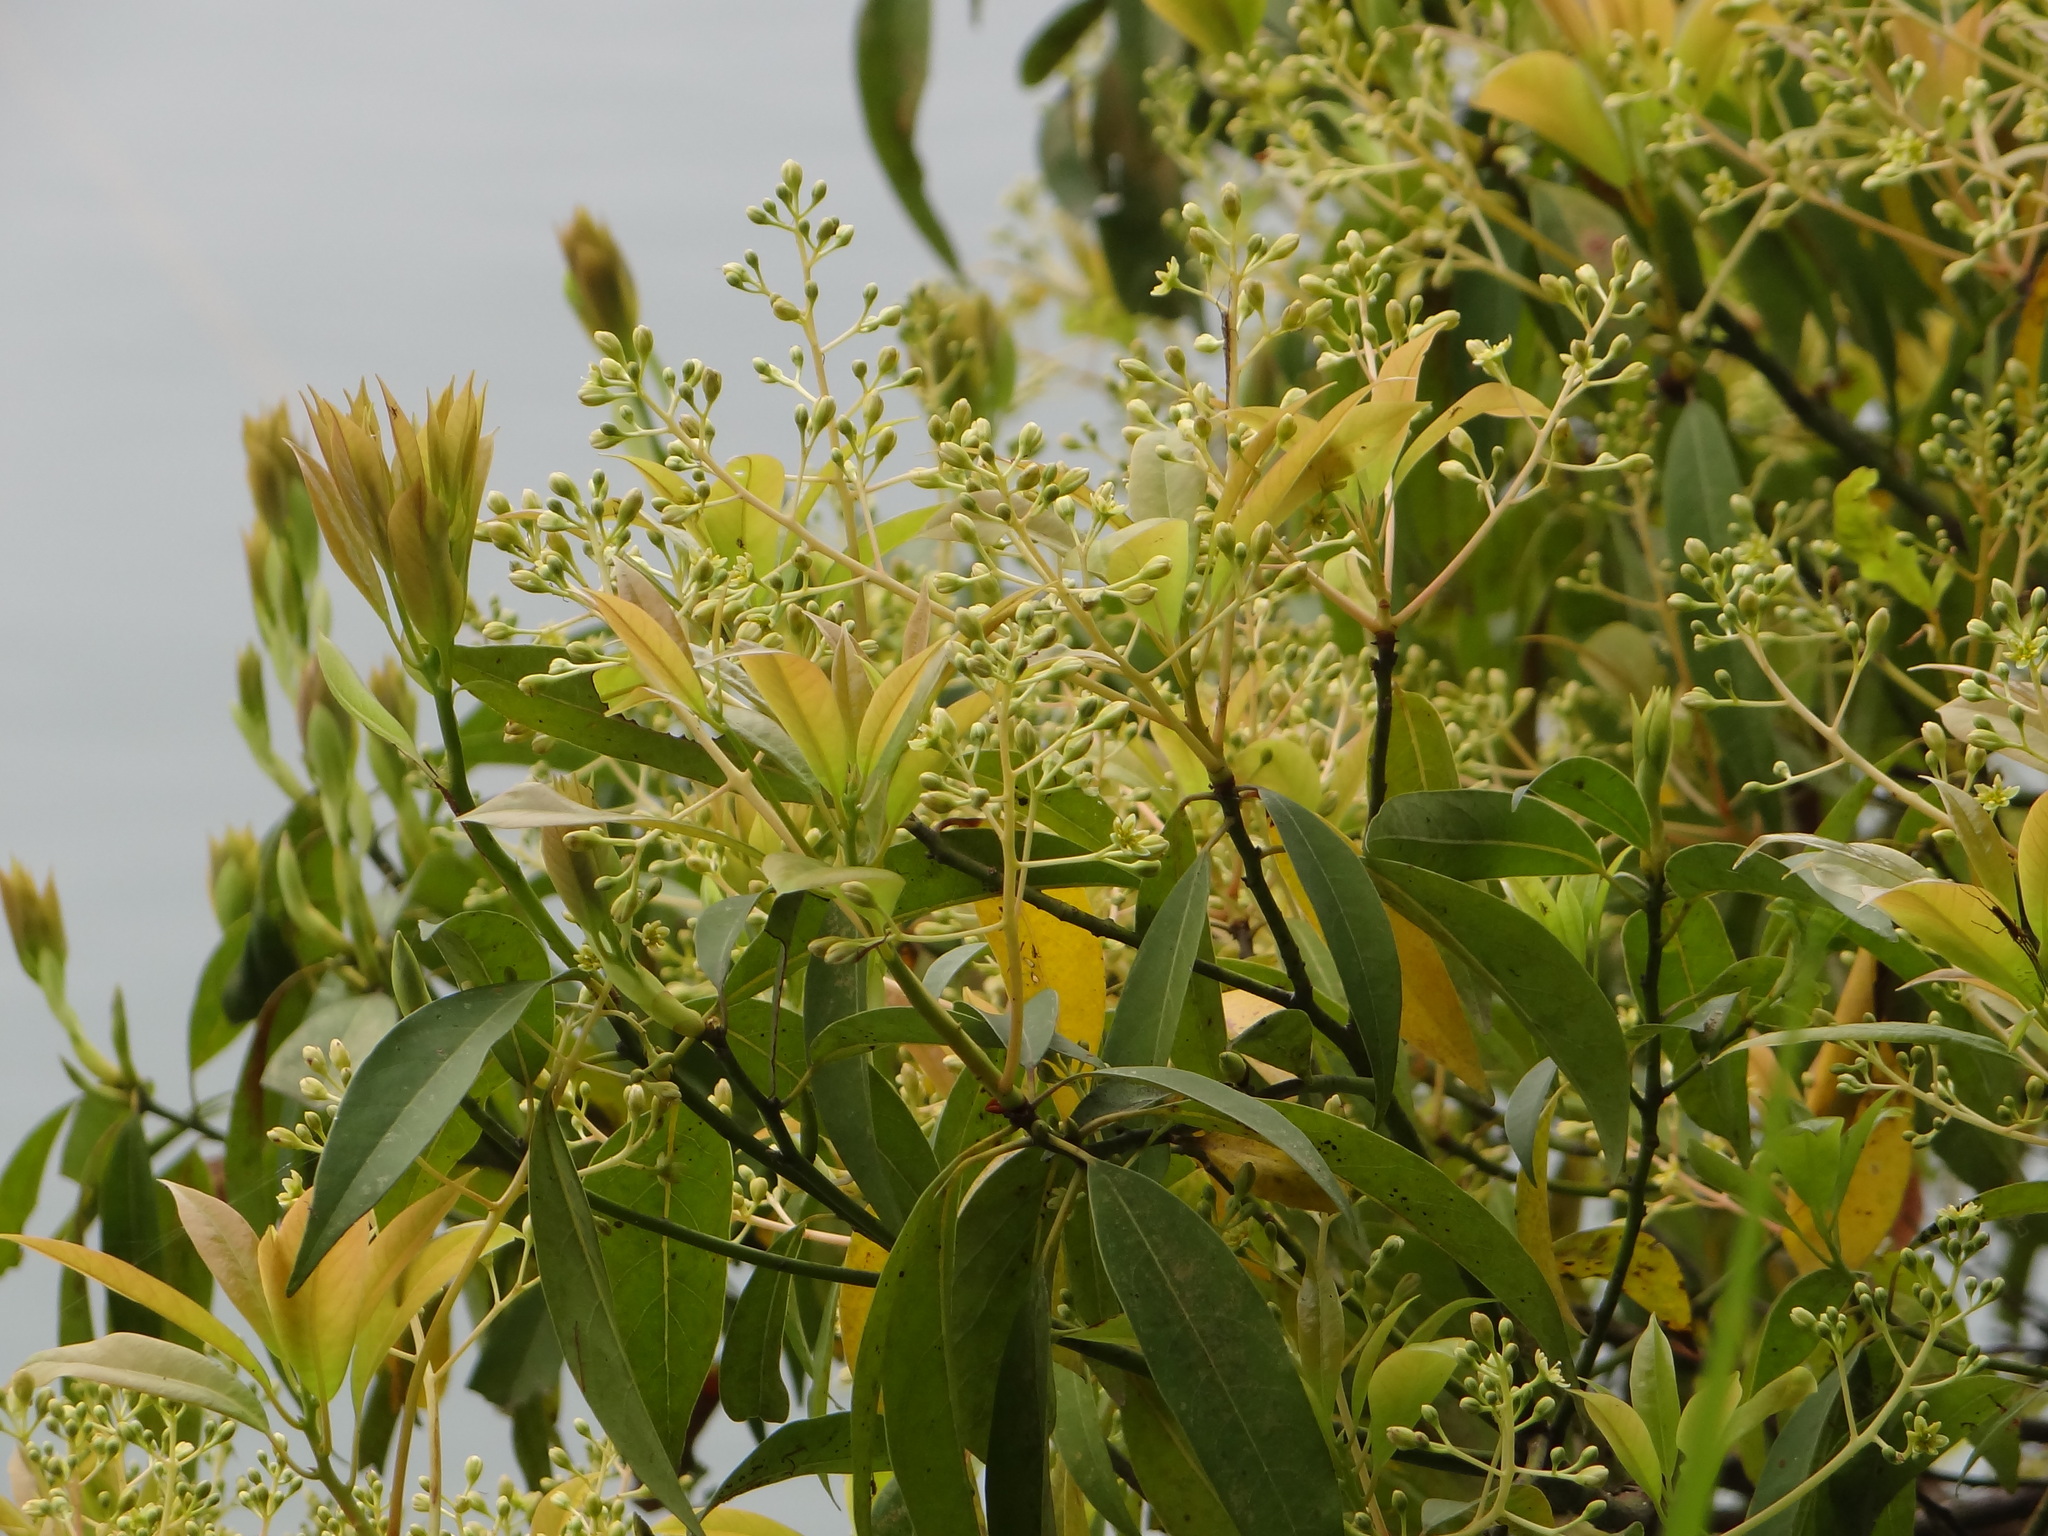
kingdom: Plantae
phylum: Tracheophyta
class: Magnoliopsida
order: Laurales
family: Lauraceae
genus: Machilus
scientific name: Machilus zuihoensis
